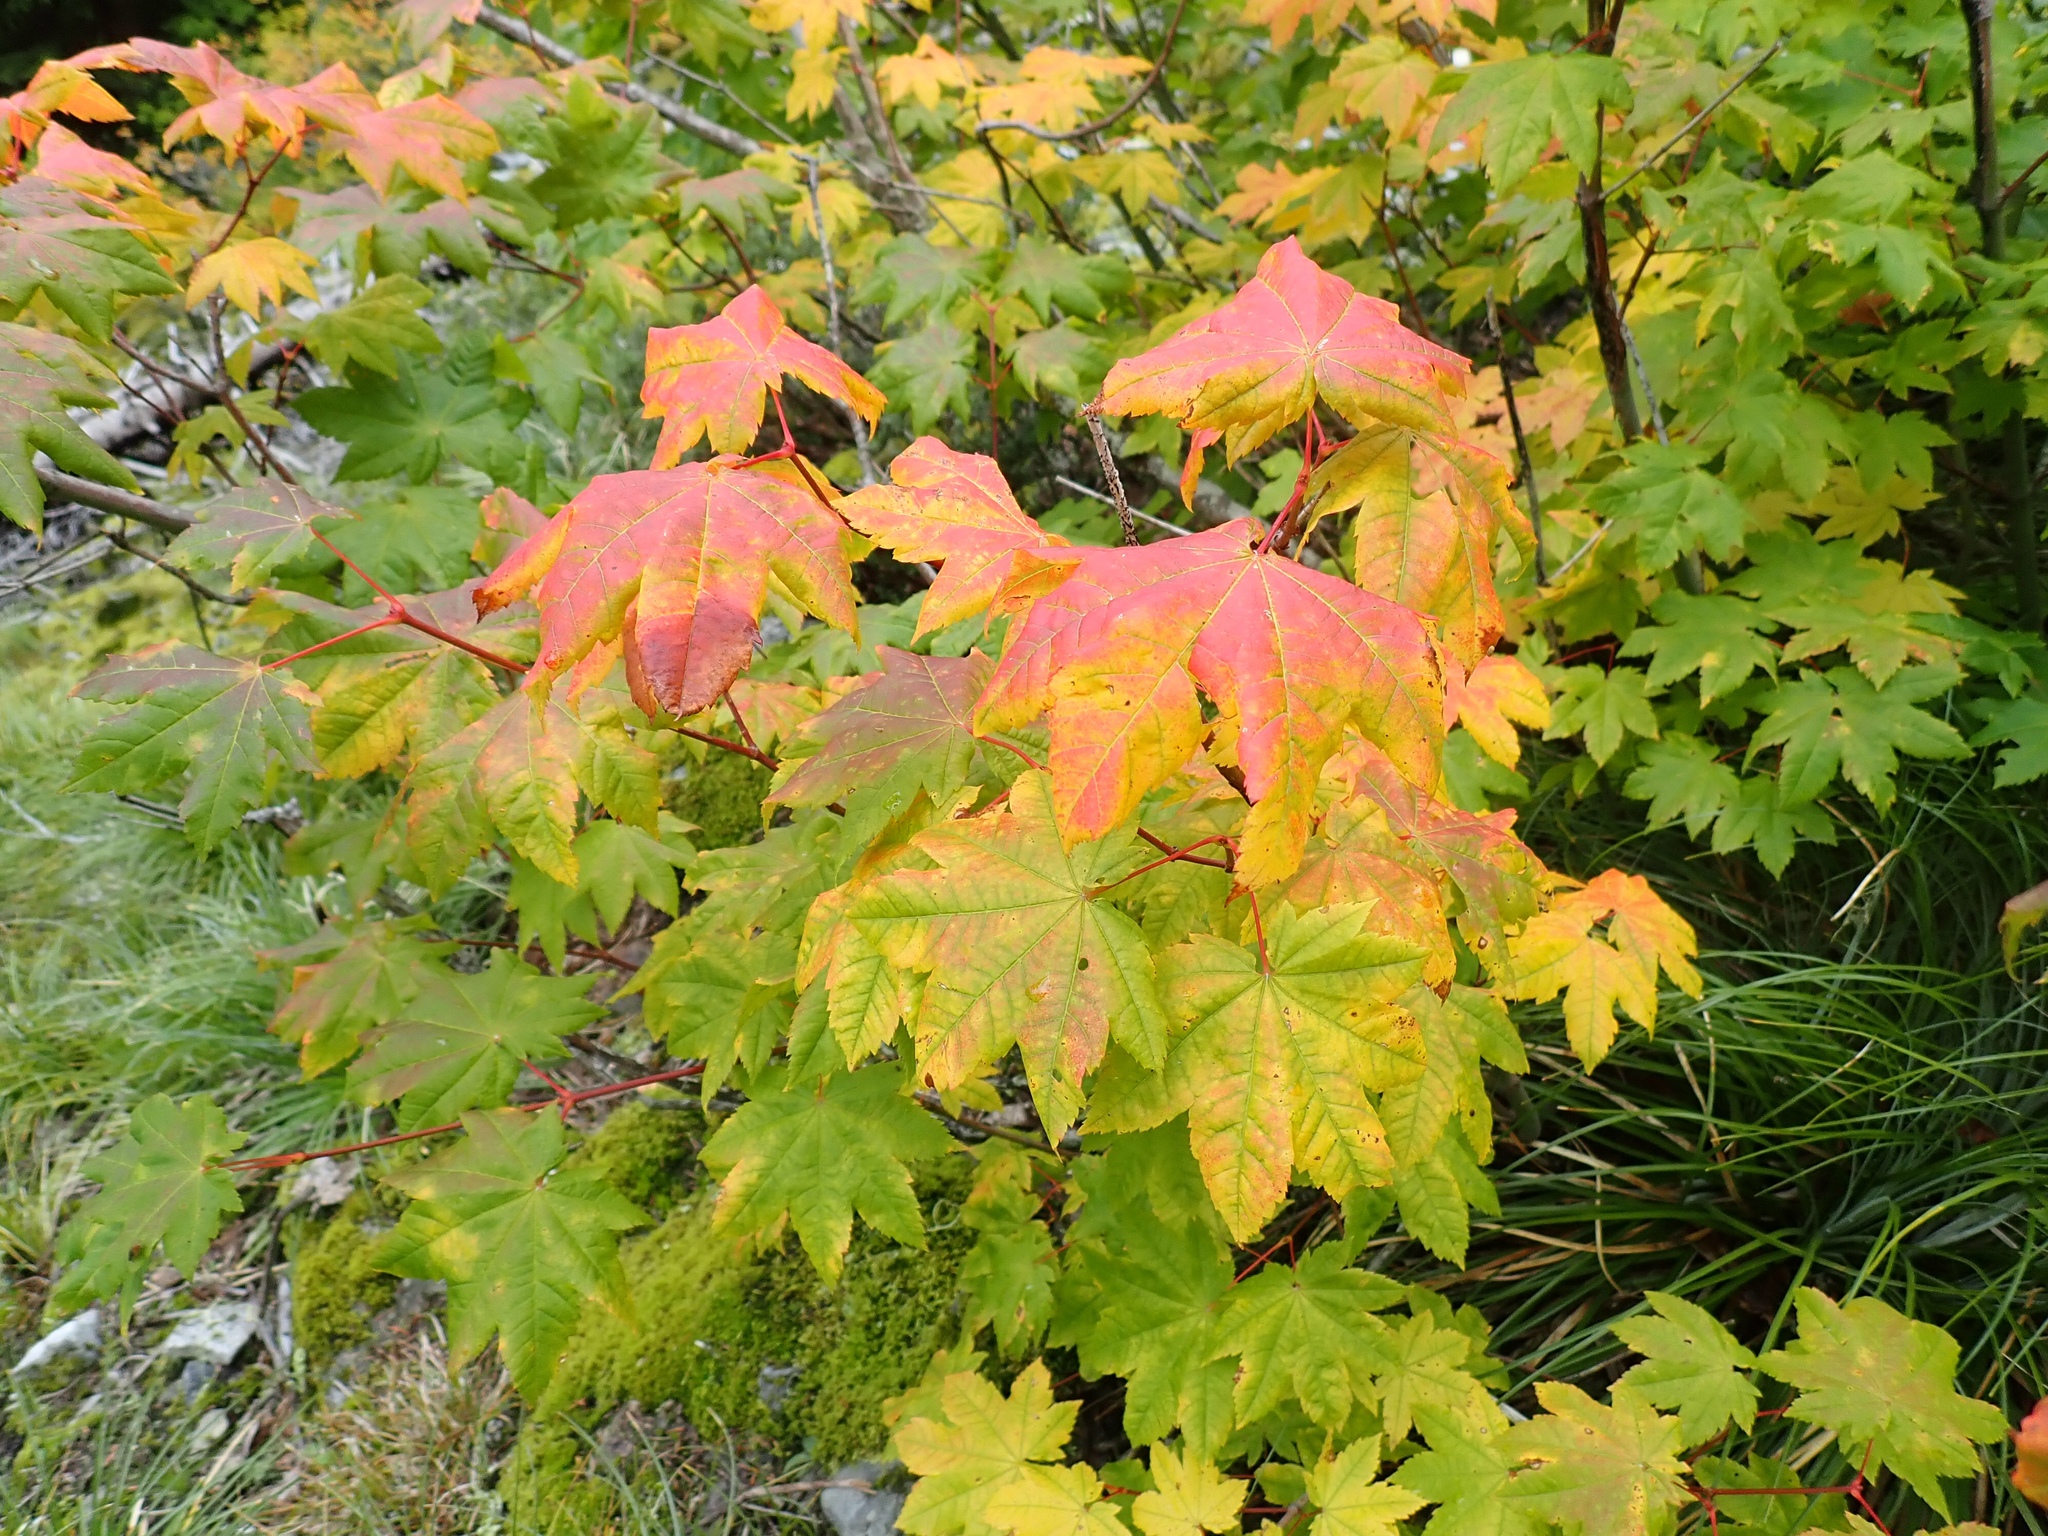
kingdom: Plantae
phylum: Tracheophyta
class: Magnoliopsida
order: Sapindales
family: Sapindaceae
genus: Acer
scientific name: Acer circinatum
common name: Vine maple
